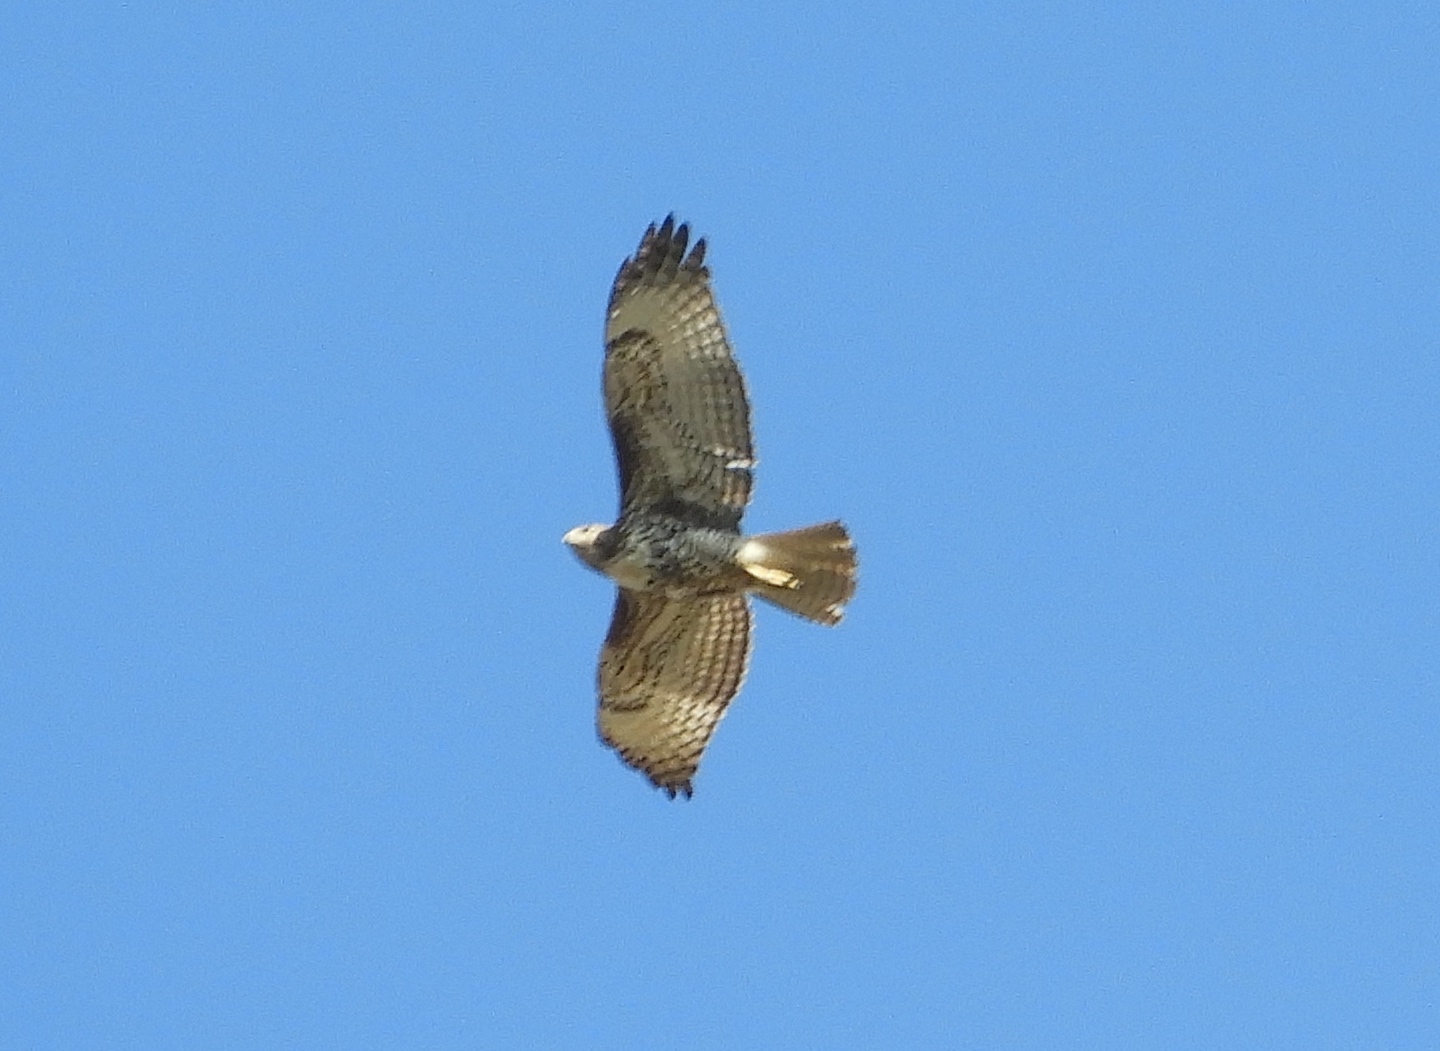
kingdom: Animalia
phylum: Chordata
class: Aves
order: Accipitriformes
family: Accipitridae
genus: Buteo
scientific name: Buteo jamaicensis
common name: Red-tailed hawk
